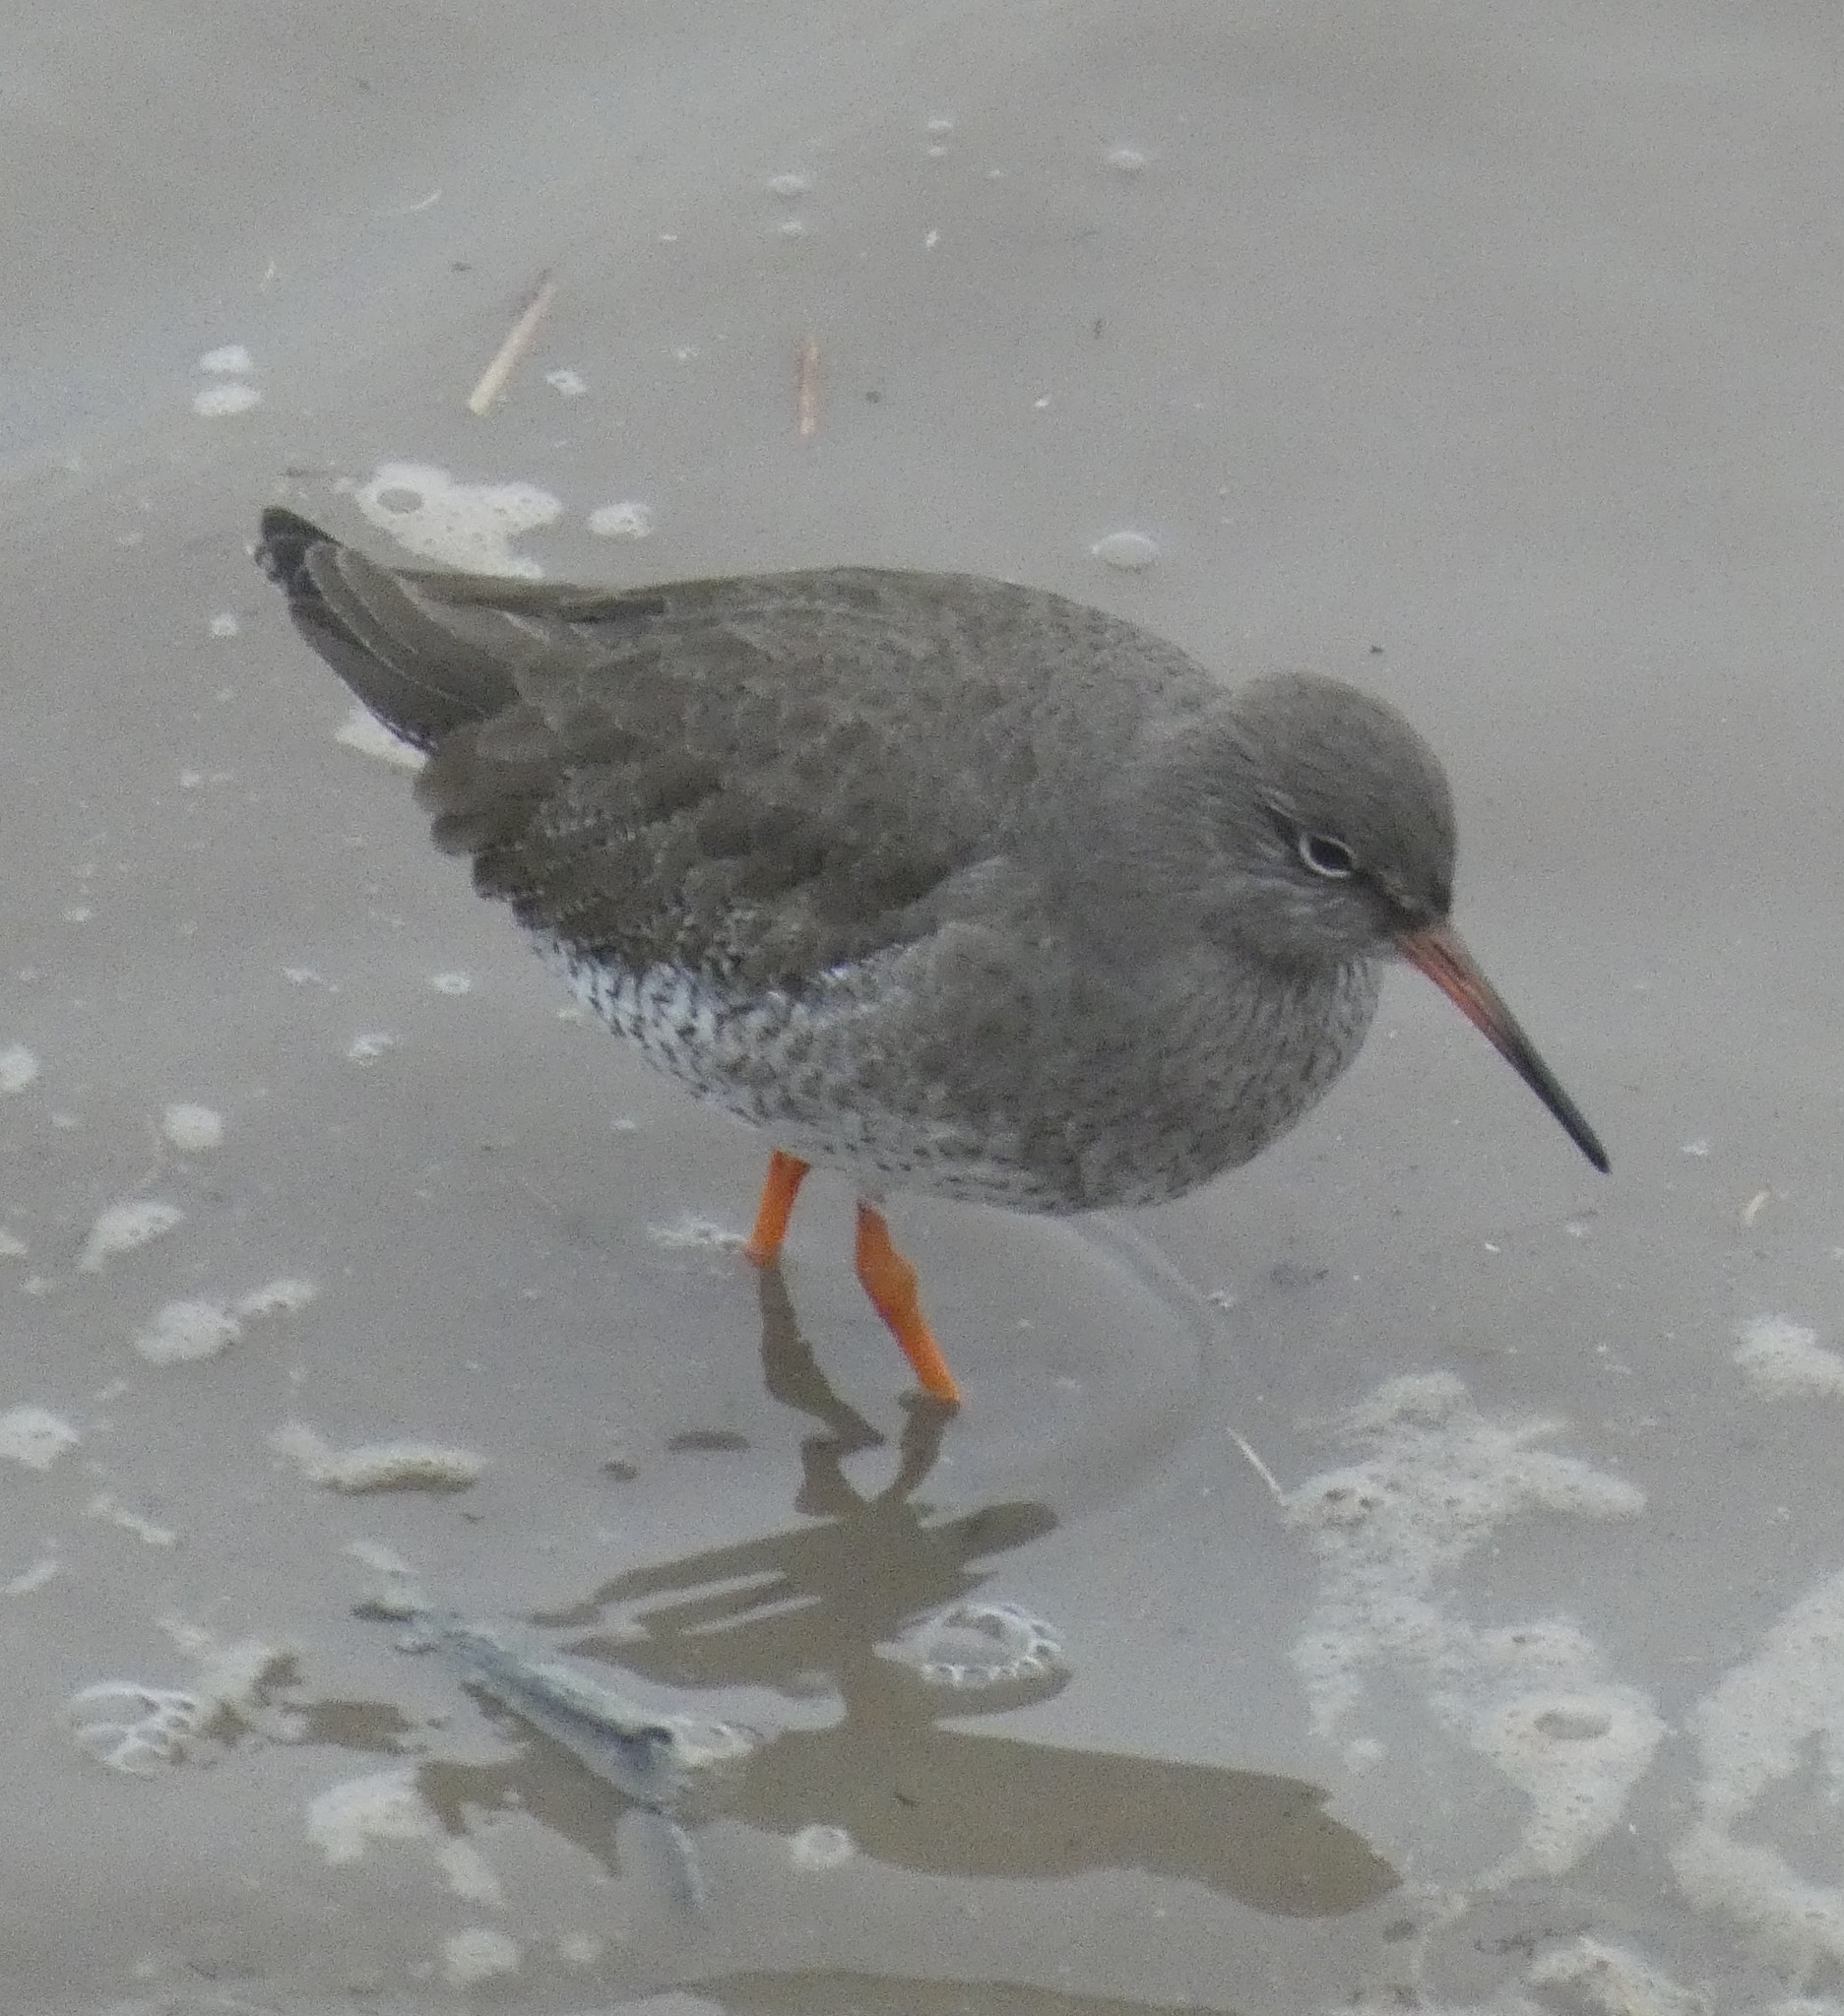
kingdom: Animalia
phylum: Chordata
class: Aves
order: Charadriiformes
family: Scolopacidae
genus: Tringa
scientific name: Tringa totanus
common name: Common redshank
